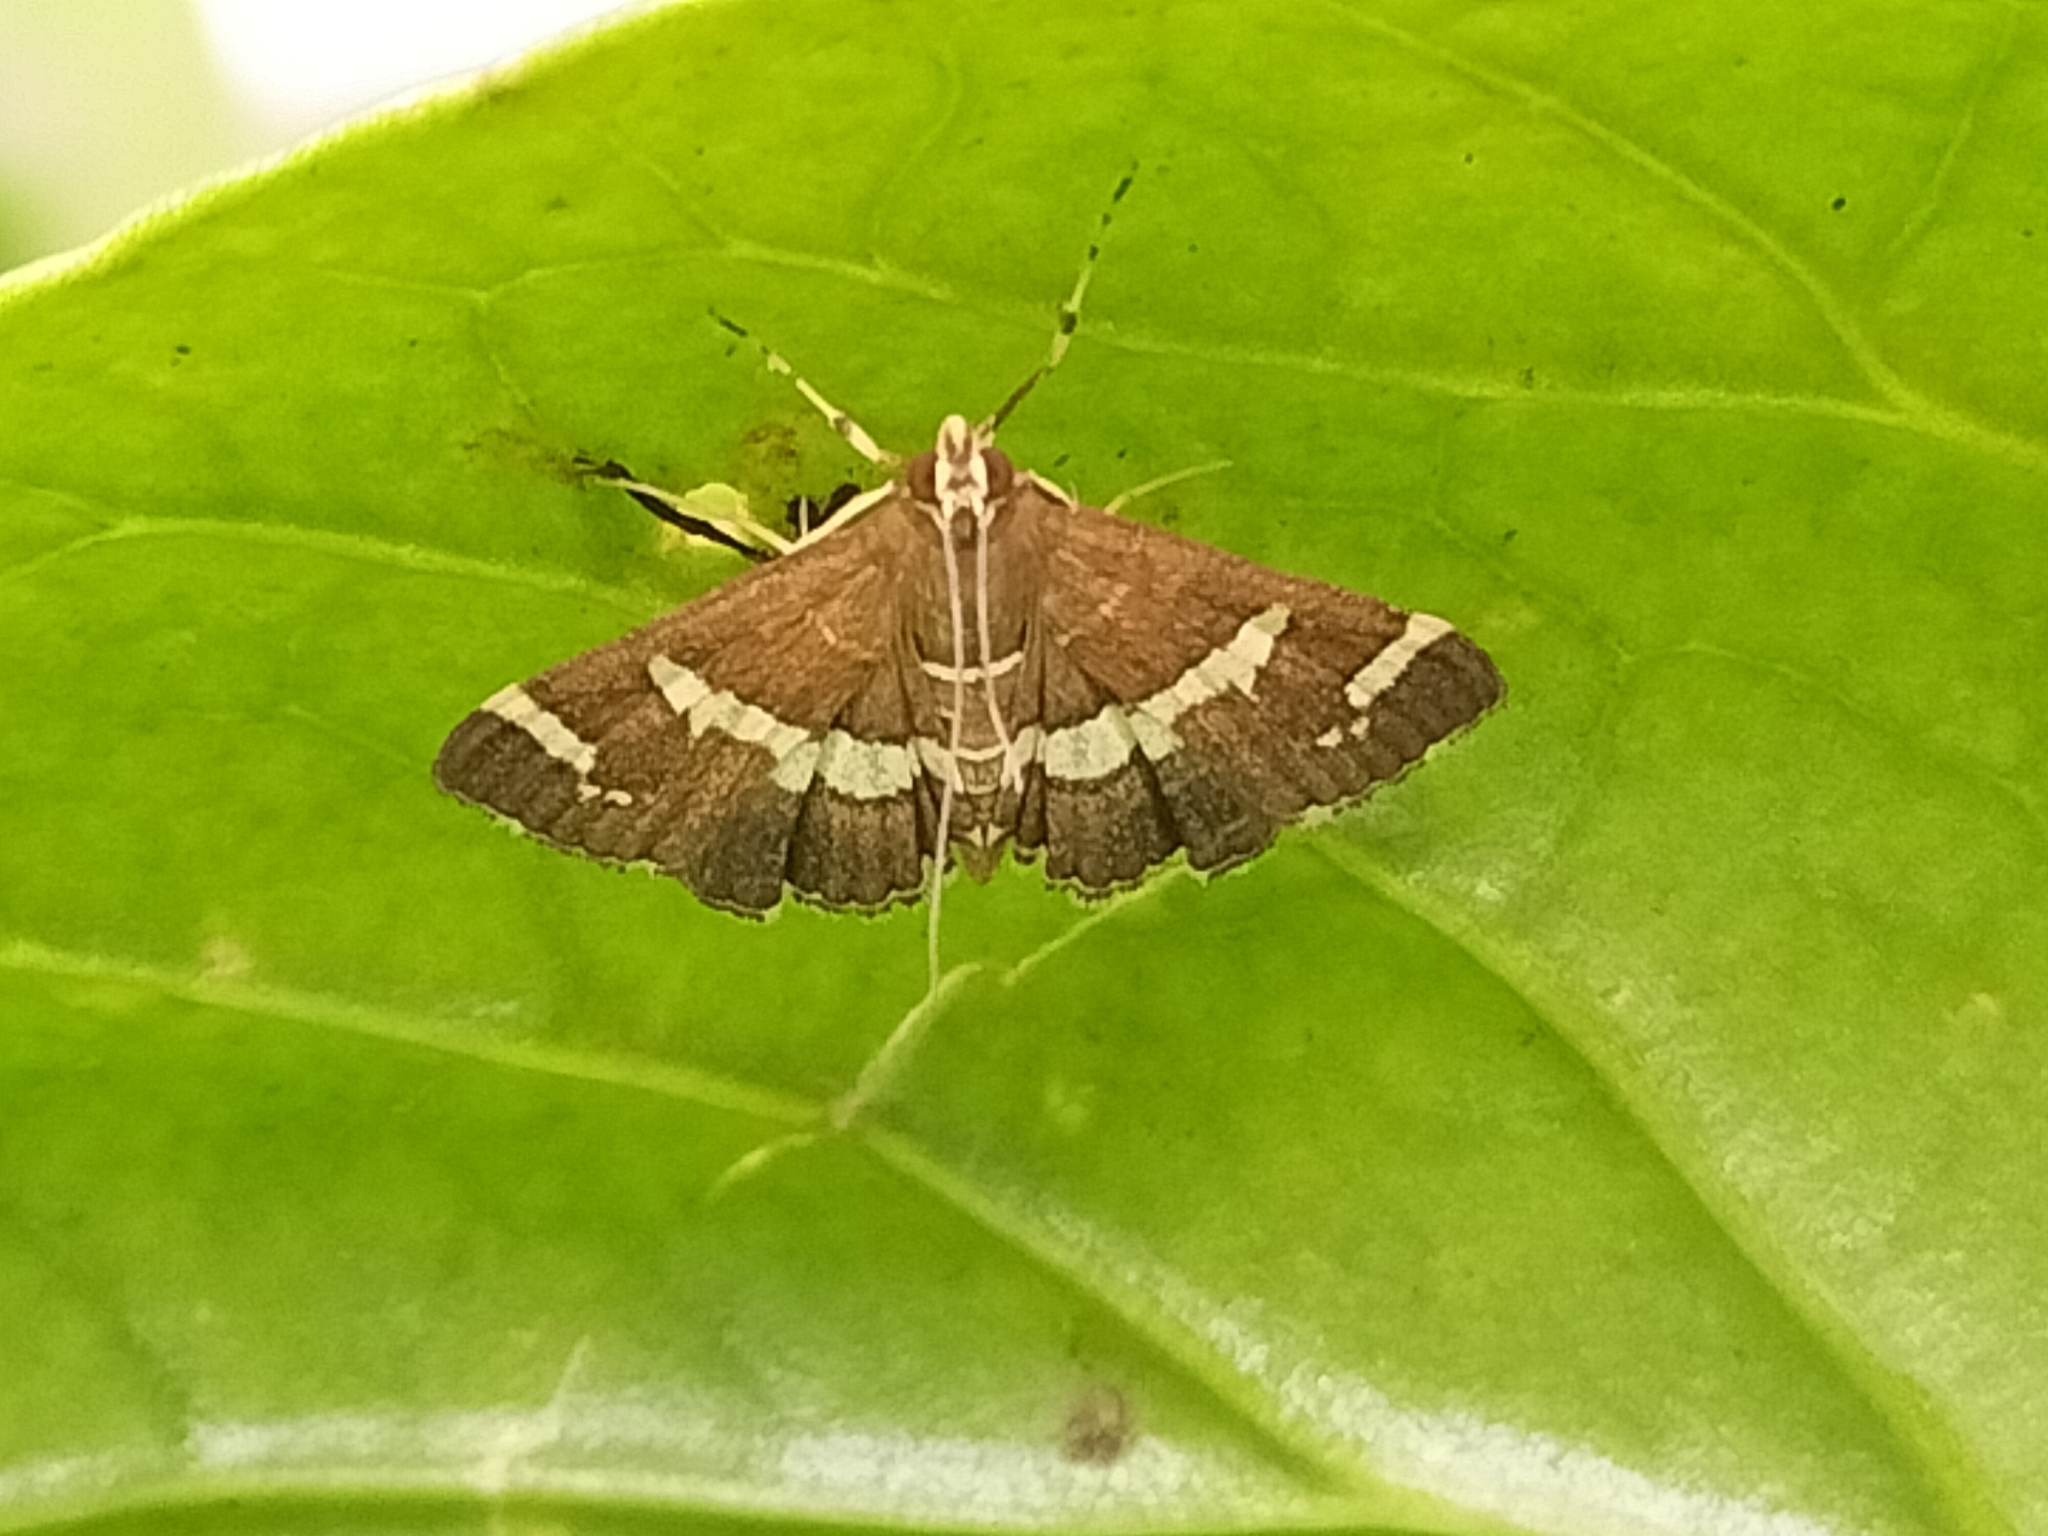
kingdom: Animalia
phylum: Arthropoda
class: Insecta
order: Lepidoptera
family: Crambidae
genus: Spoladea
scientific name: Spoladea recurvalis
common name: Beet webworm moth
